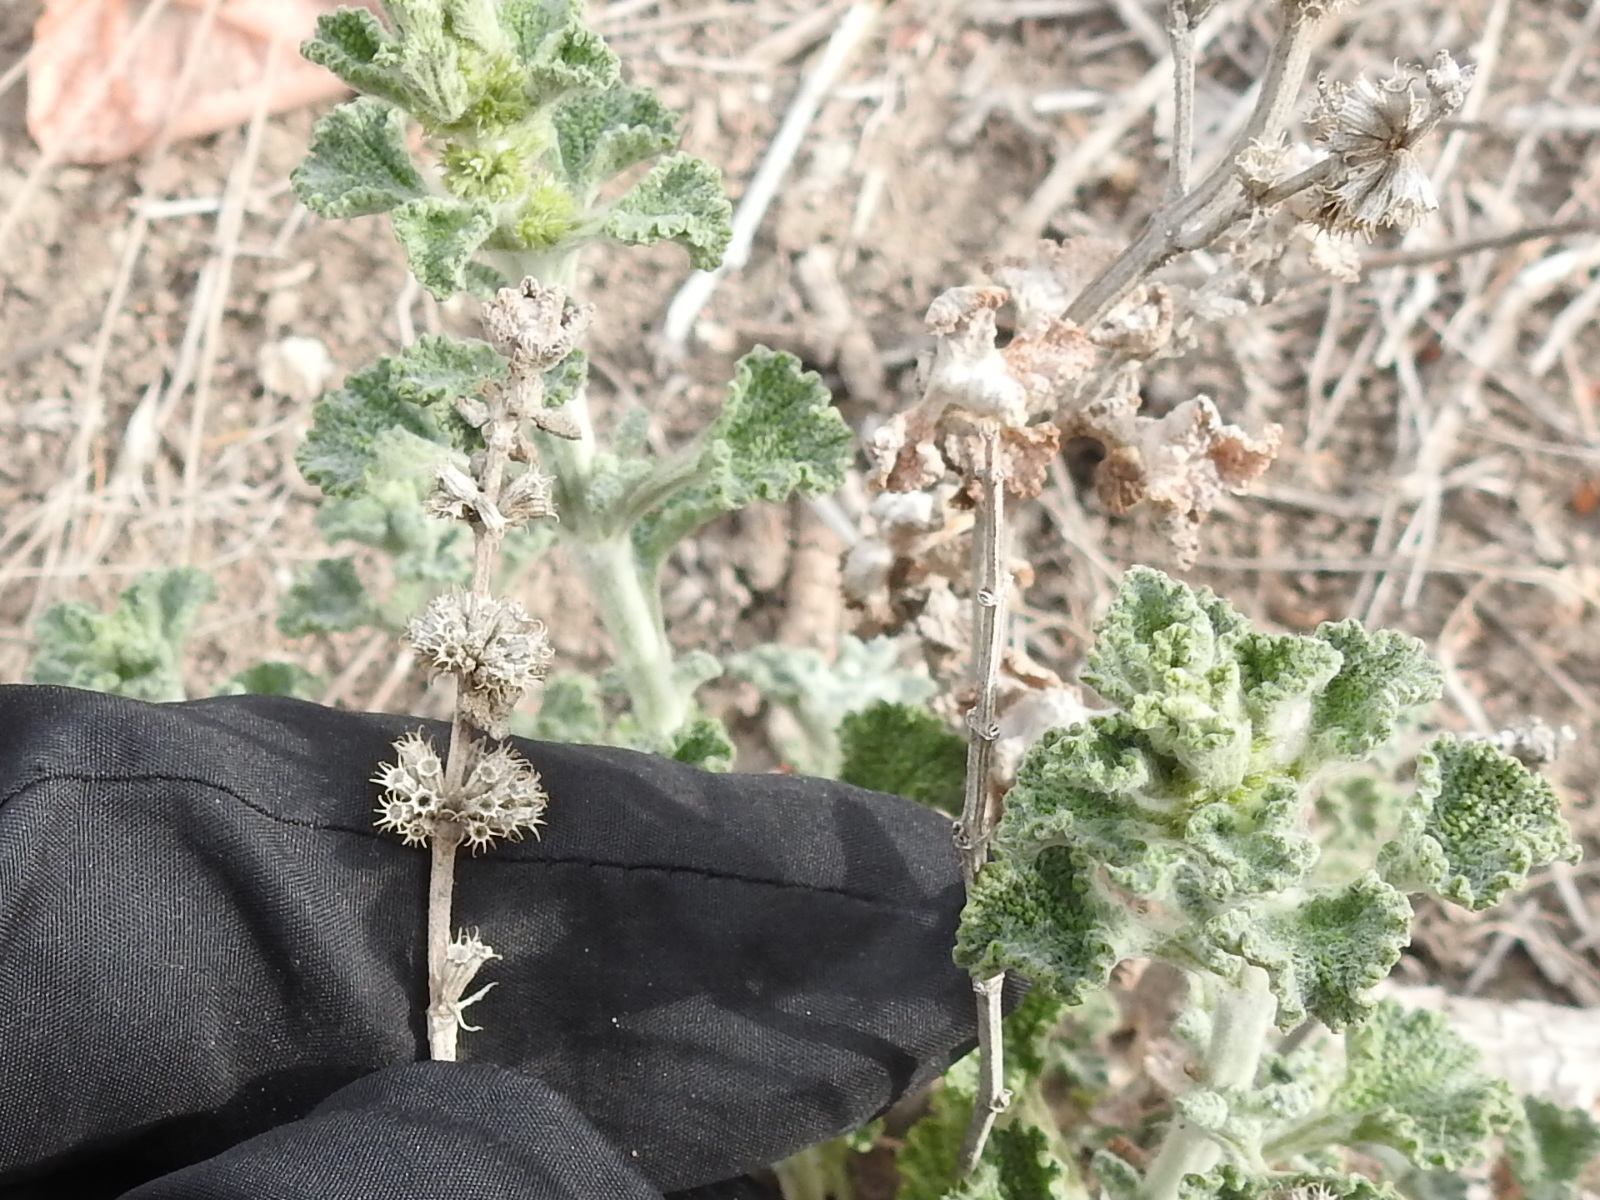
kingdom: Plantae
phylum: Tracheophyta
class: Magnoliopsida
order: Lamiales
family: Lamiaceae
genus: Marrubium
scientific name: Marrubium vulgare
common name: Horehound
